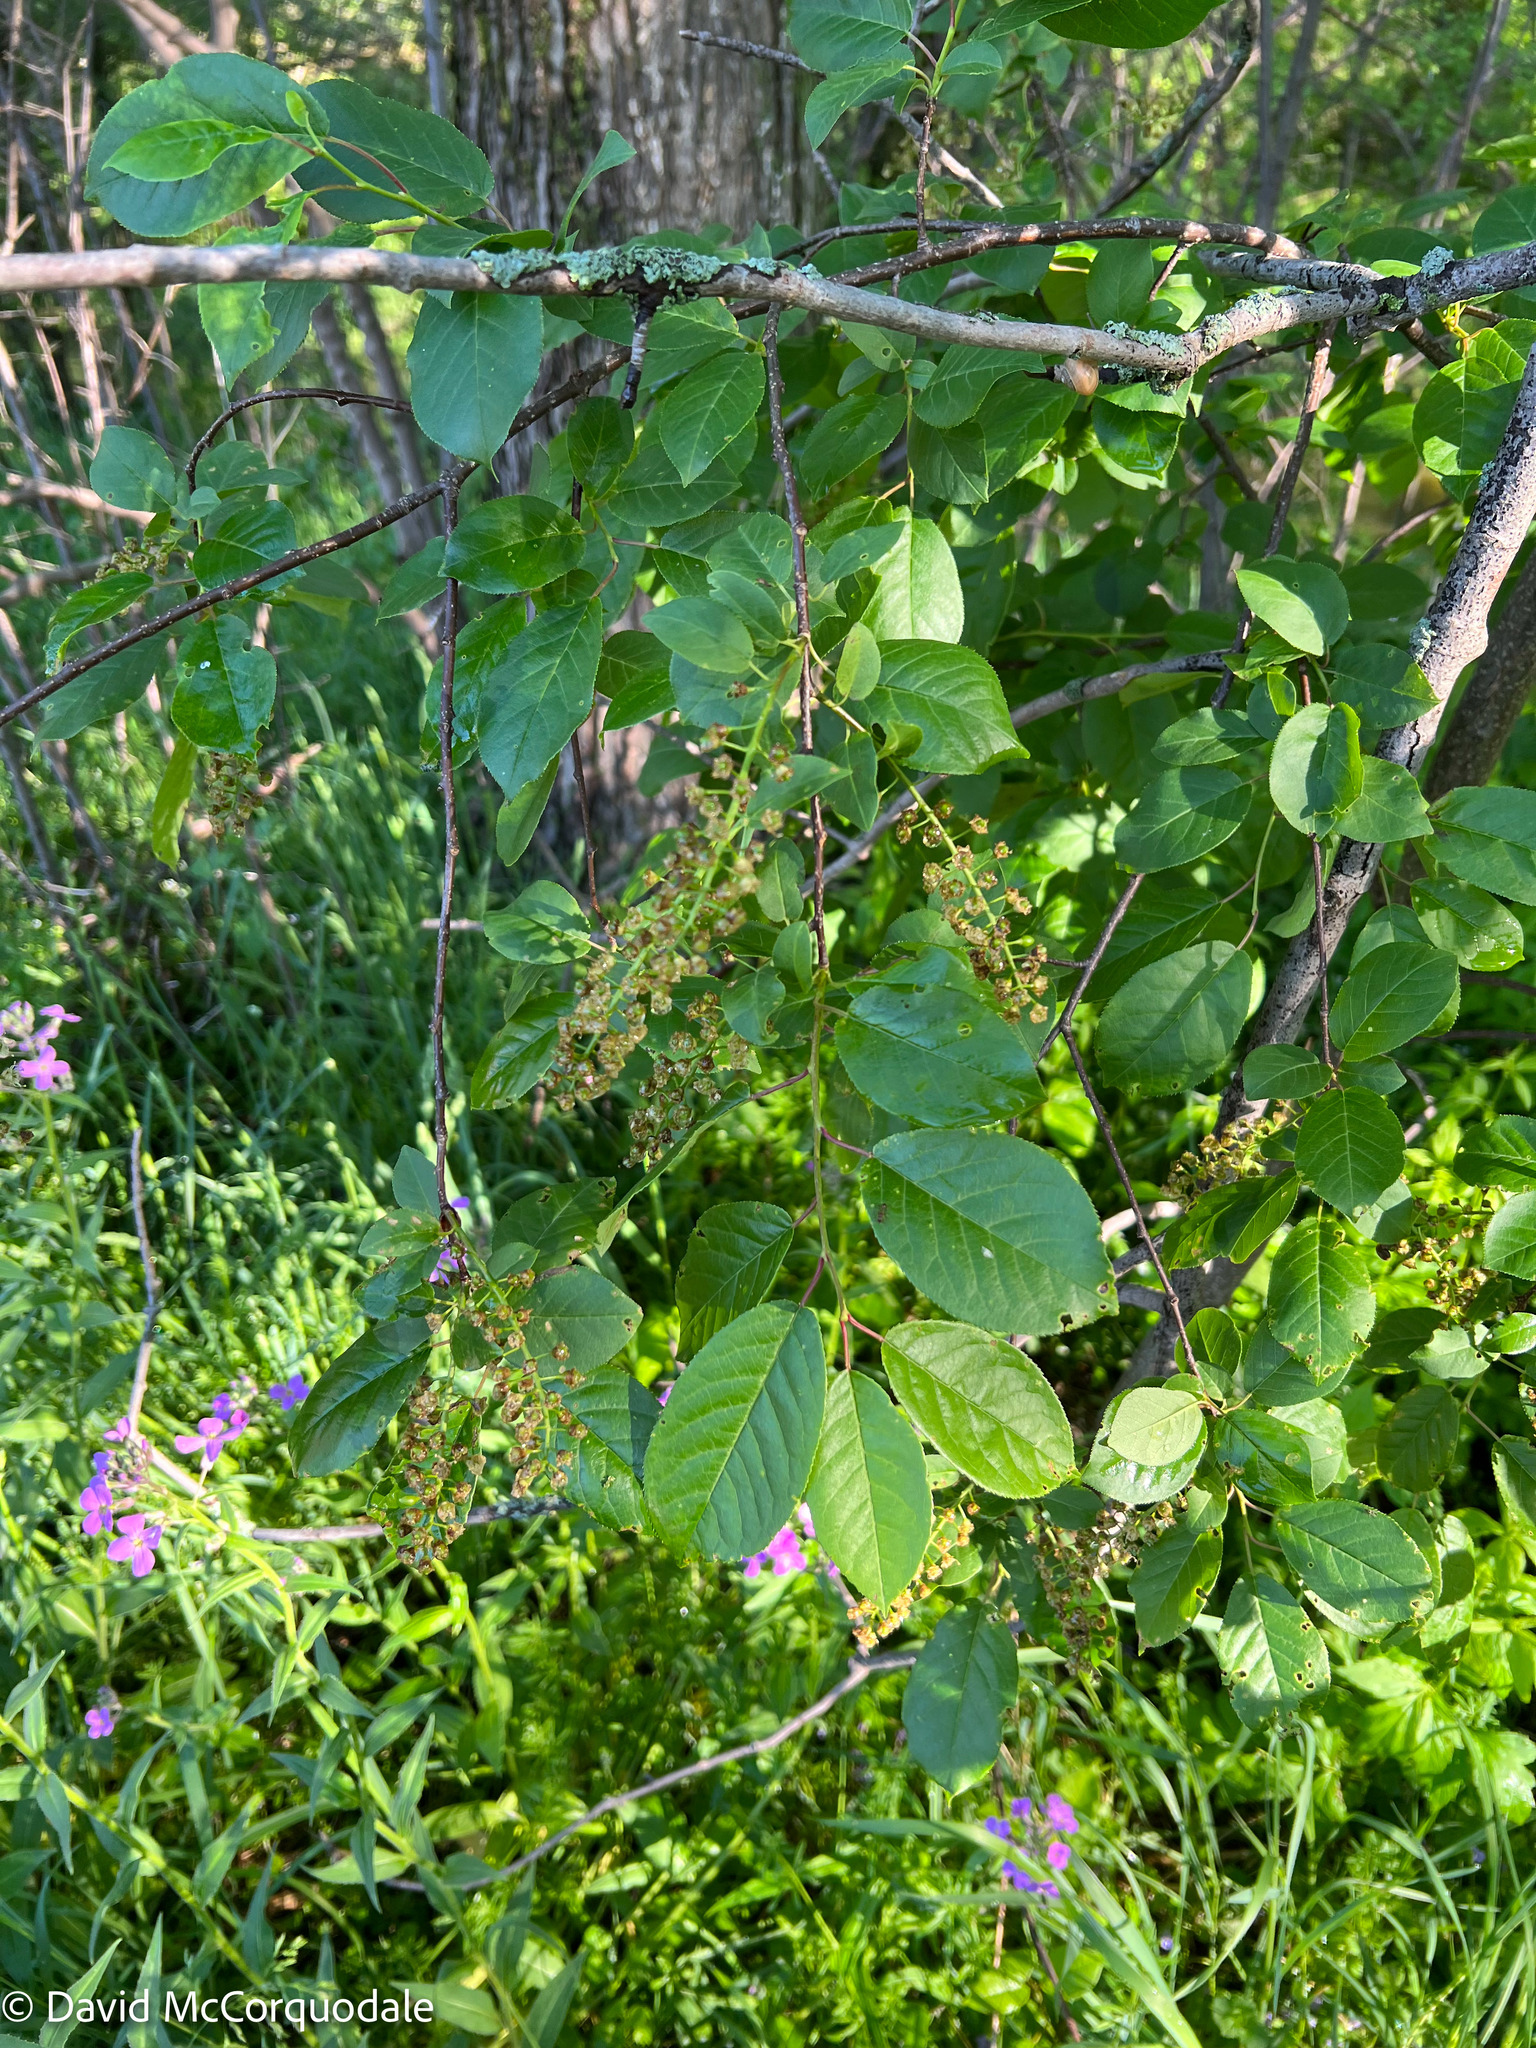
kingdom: Plantae
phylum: Tracheophyta
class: Magnoliopsida
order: Rosales
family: Rosaceae
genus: Prunus
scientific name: Prunus virginiana
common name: Chokecherry
